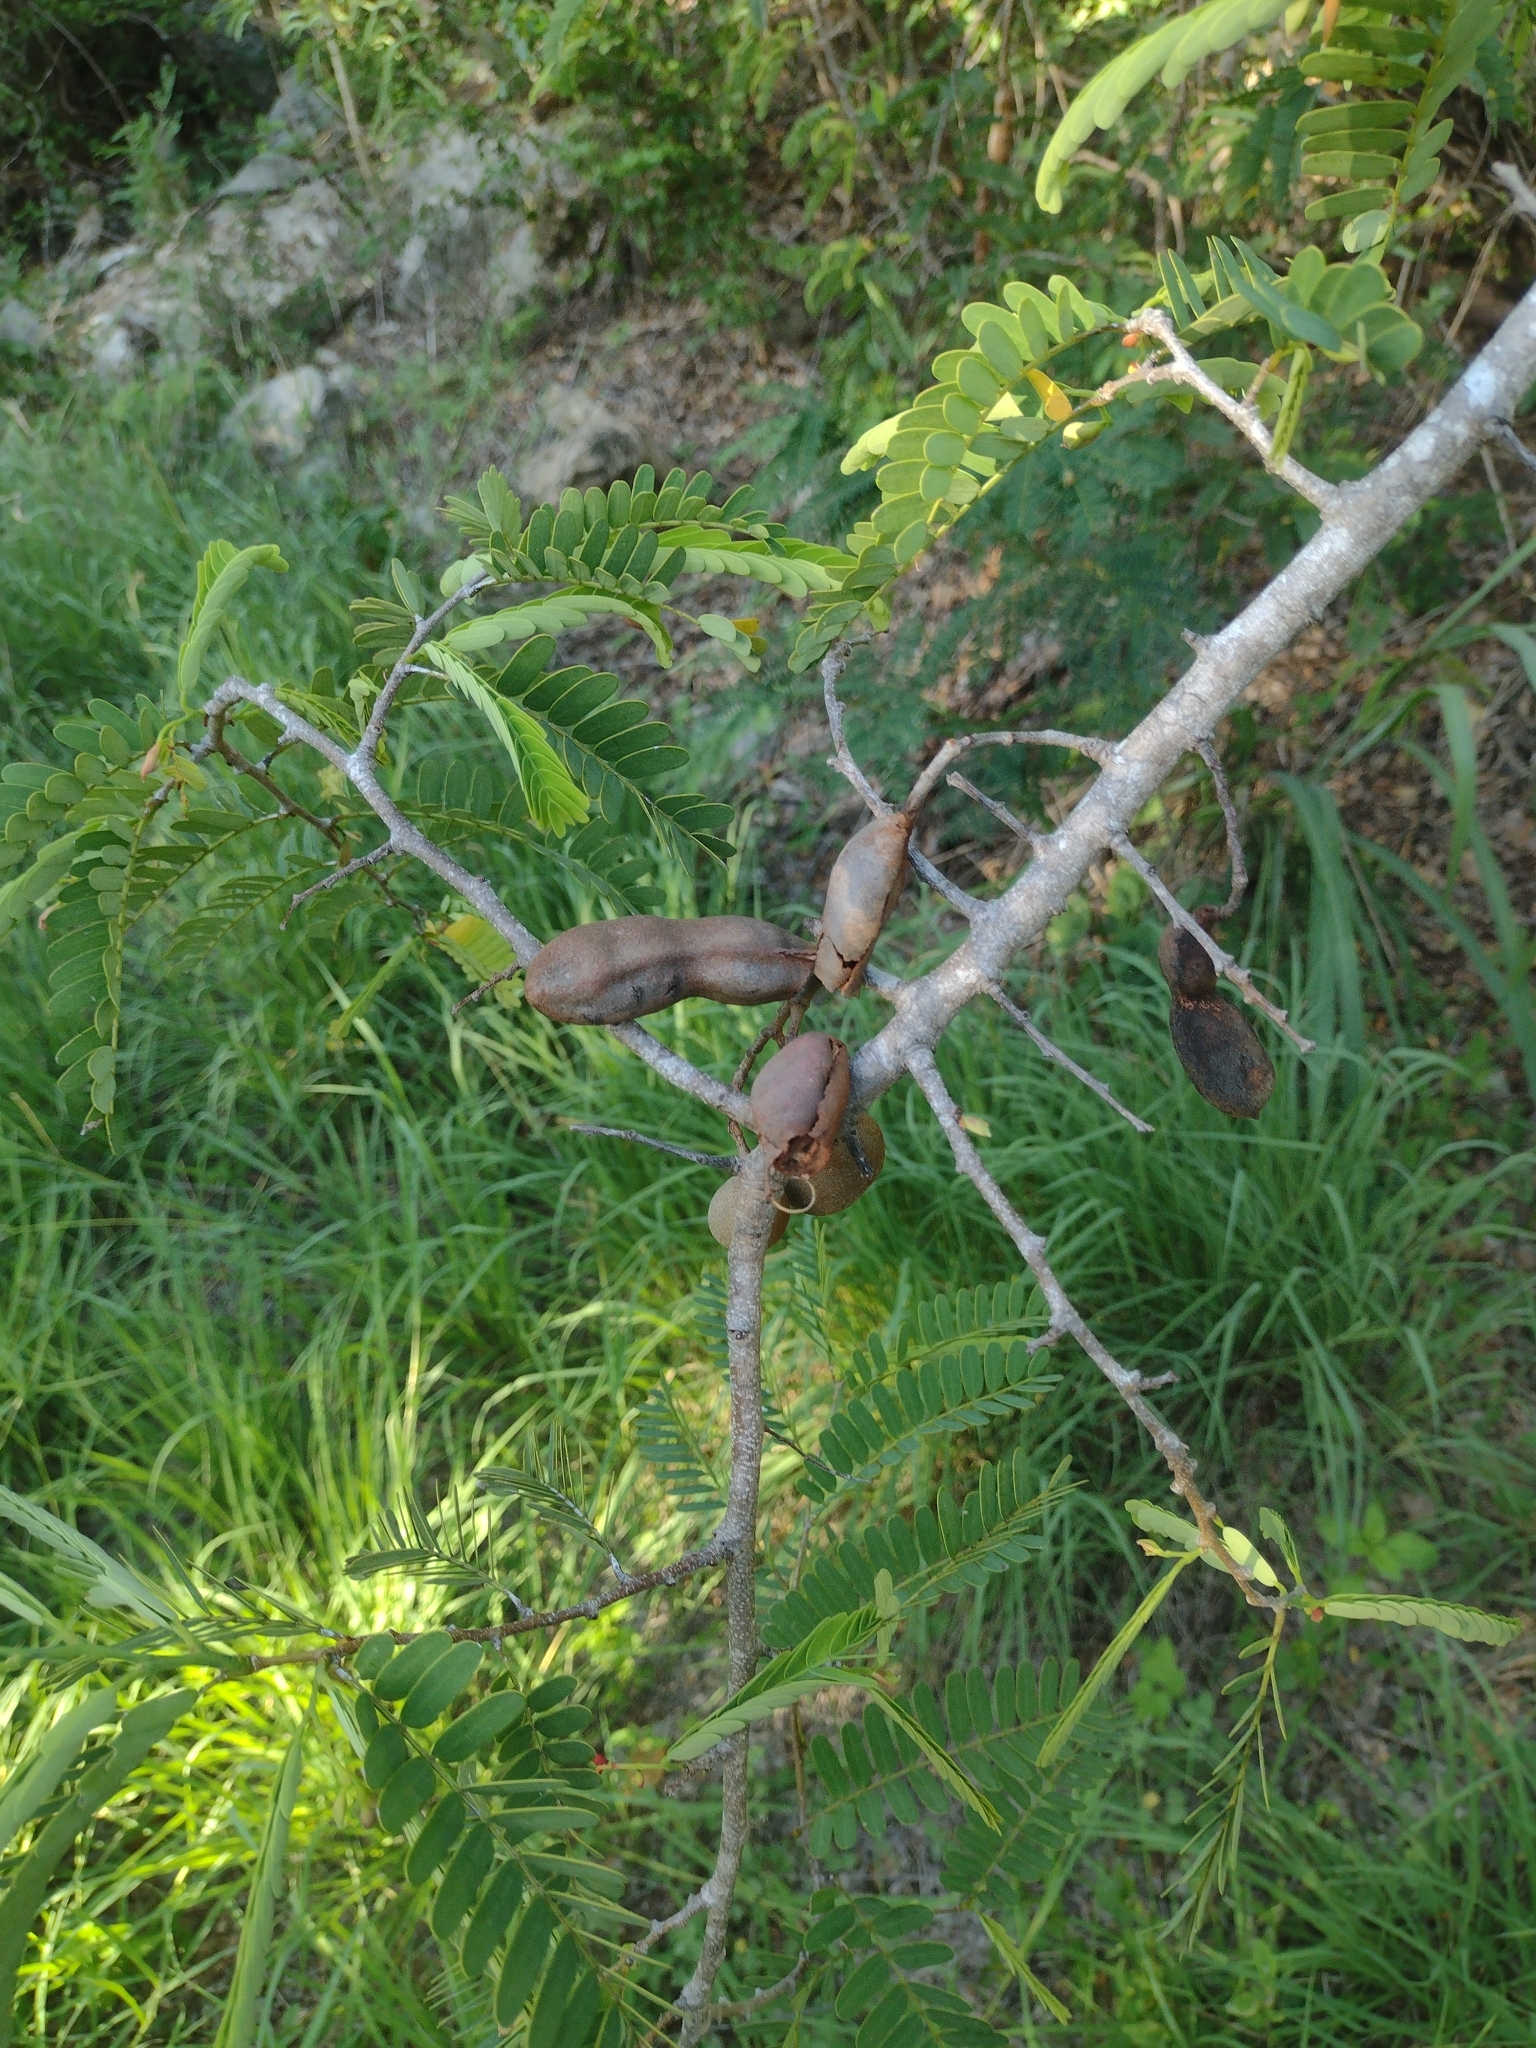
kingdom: Plantae
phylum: Tracheophyta
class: Magnoliopsida
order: Fabales
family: Fabaceae
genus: Tamarindus
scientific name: Tamarindus indica
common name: Tamarind
